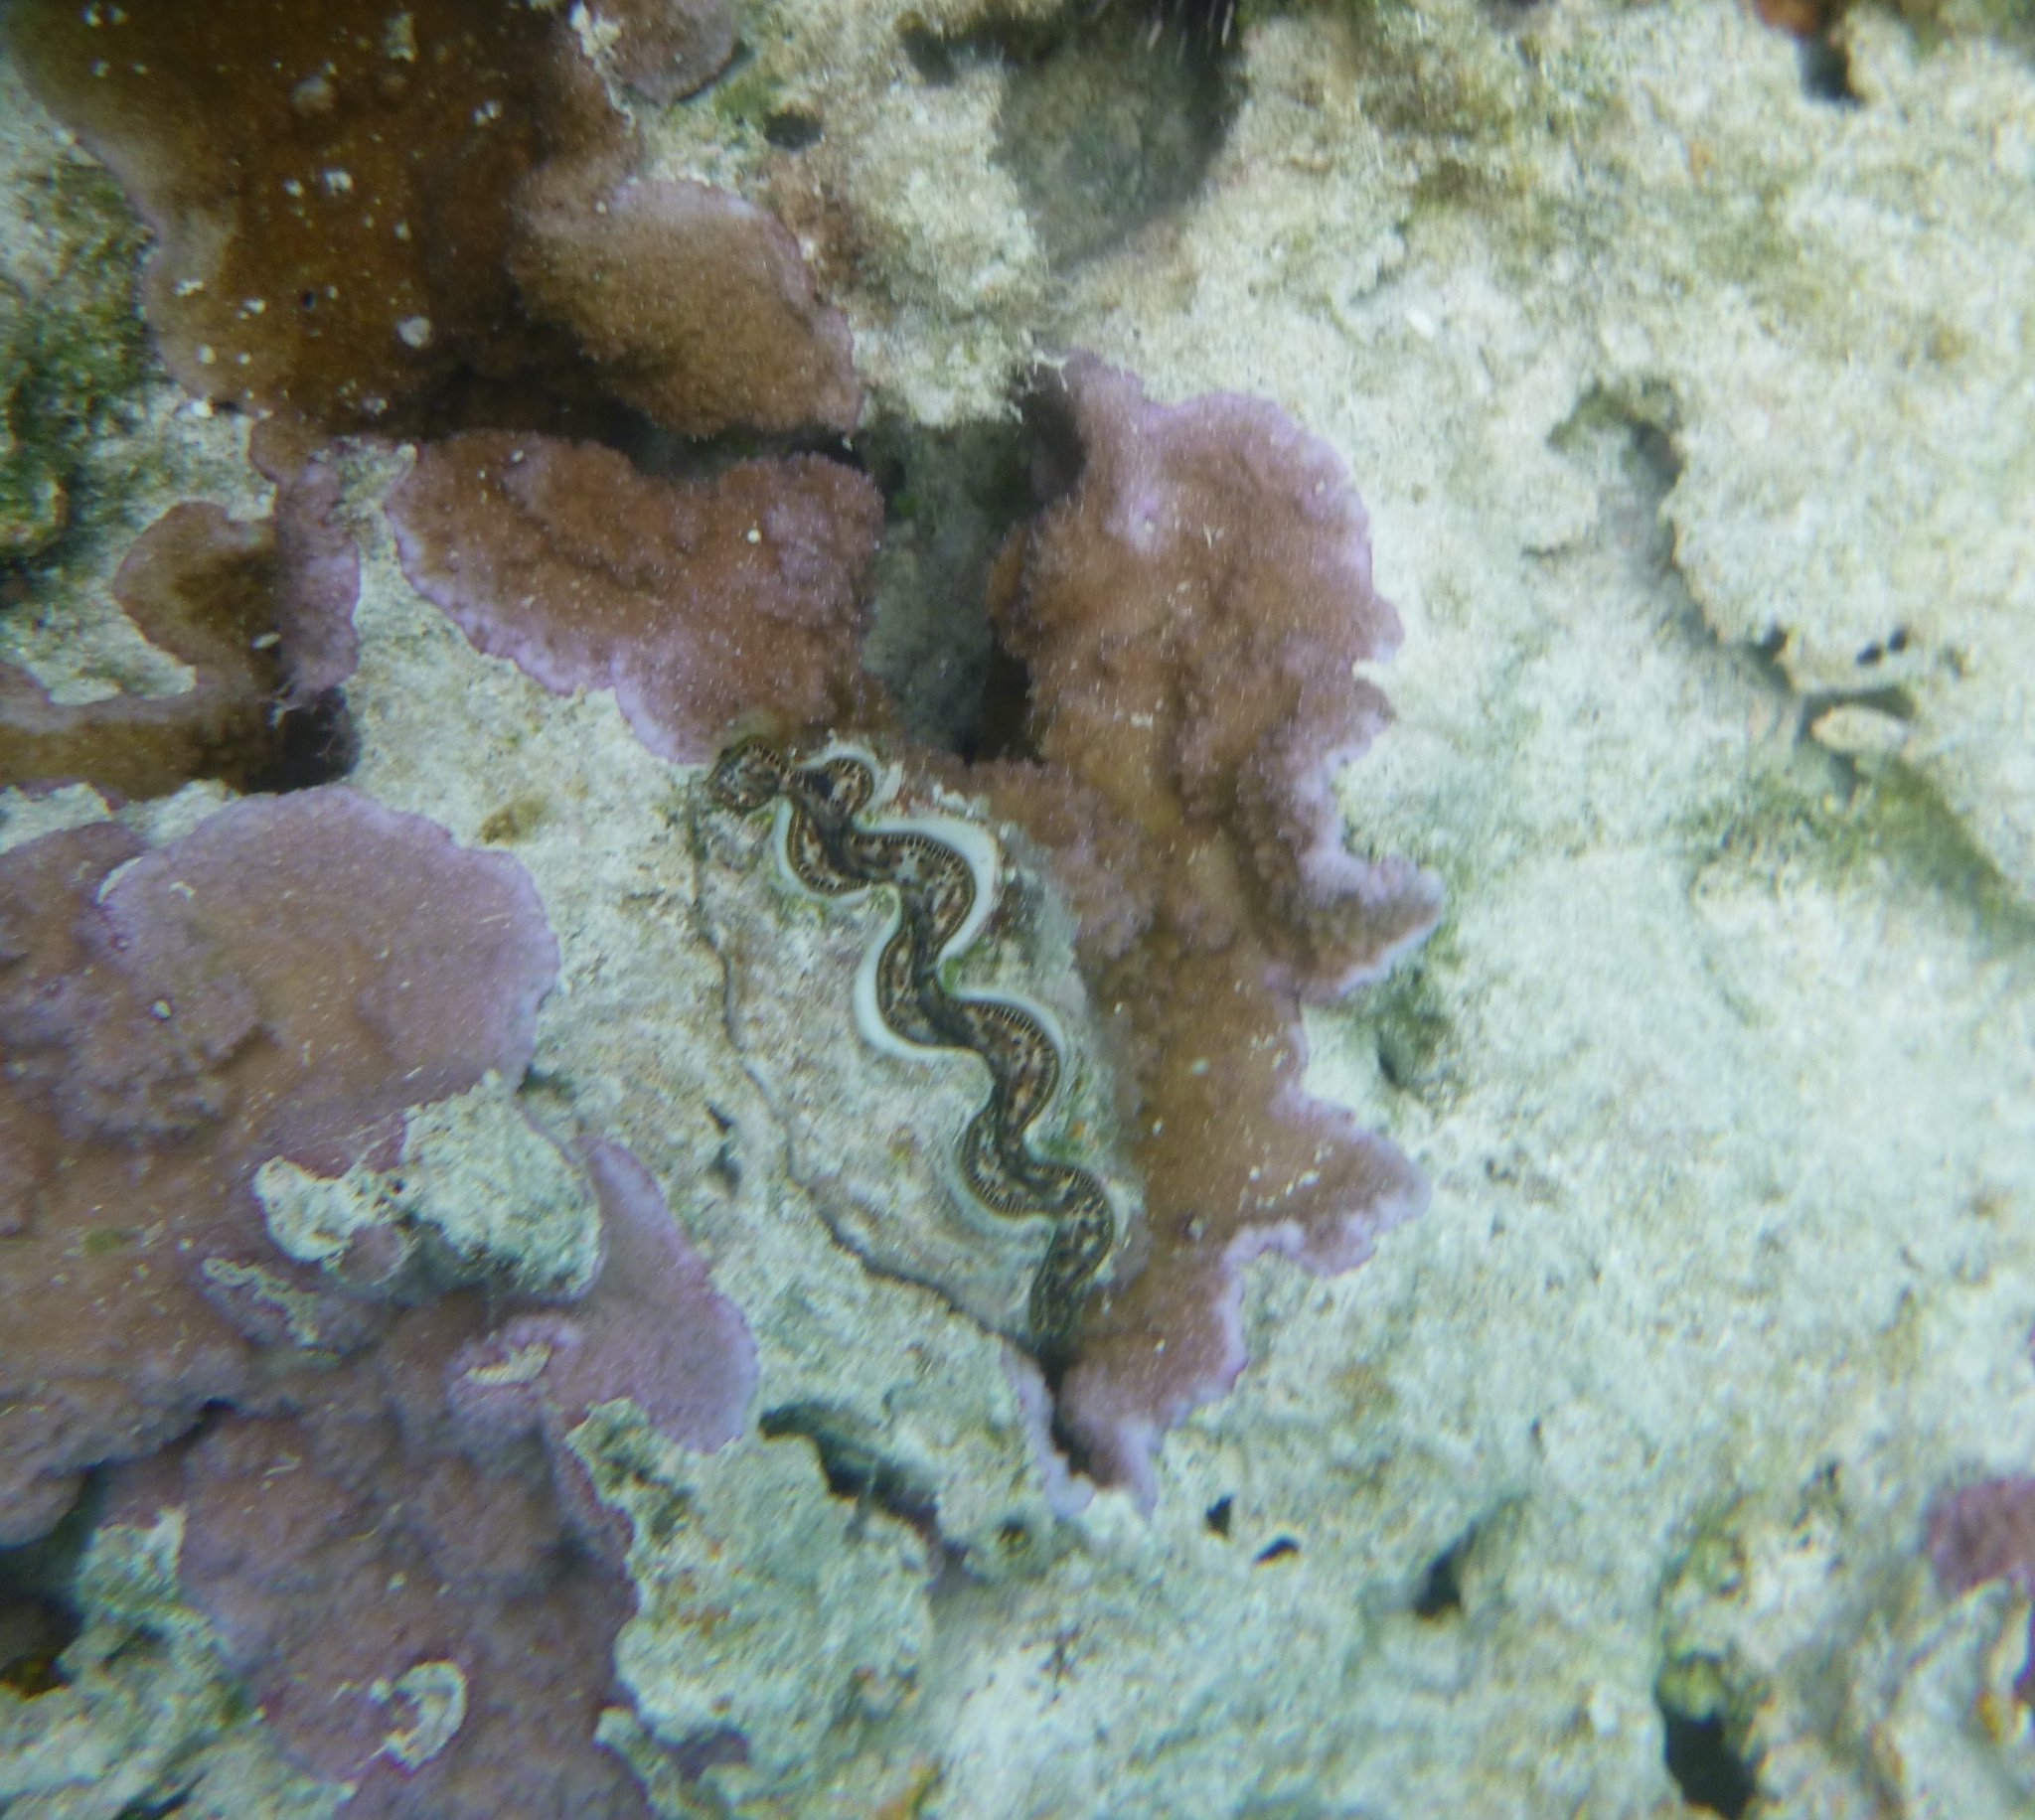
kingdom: Animalia
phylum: Mollusca
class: Bivalvia
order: Cardiida
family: Cardiidae
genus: Tridacna
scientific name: Tridacna maxima
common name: Small giant clam
